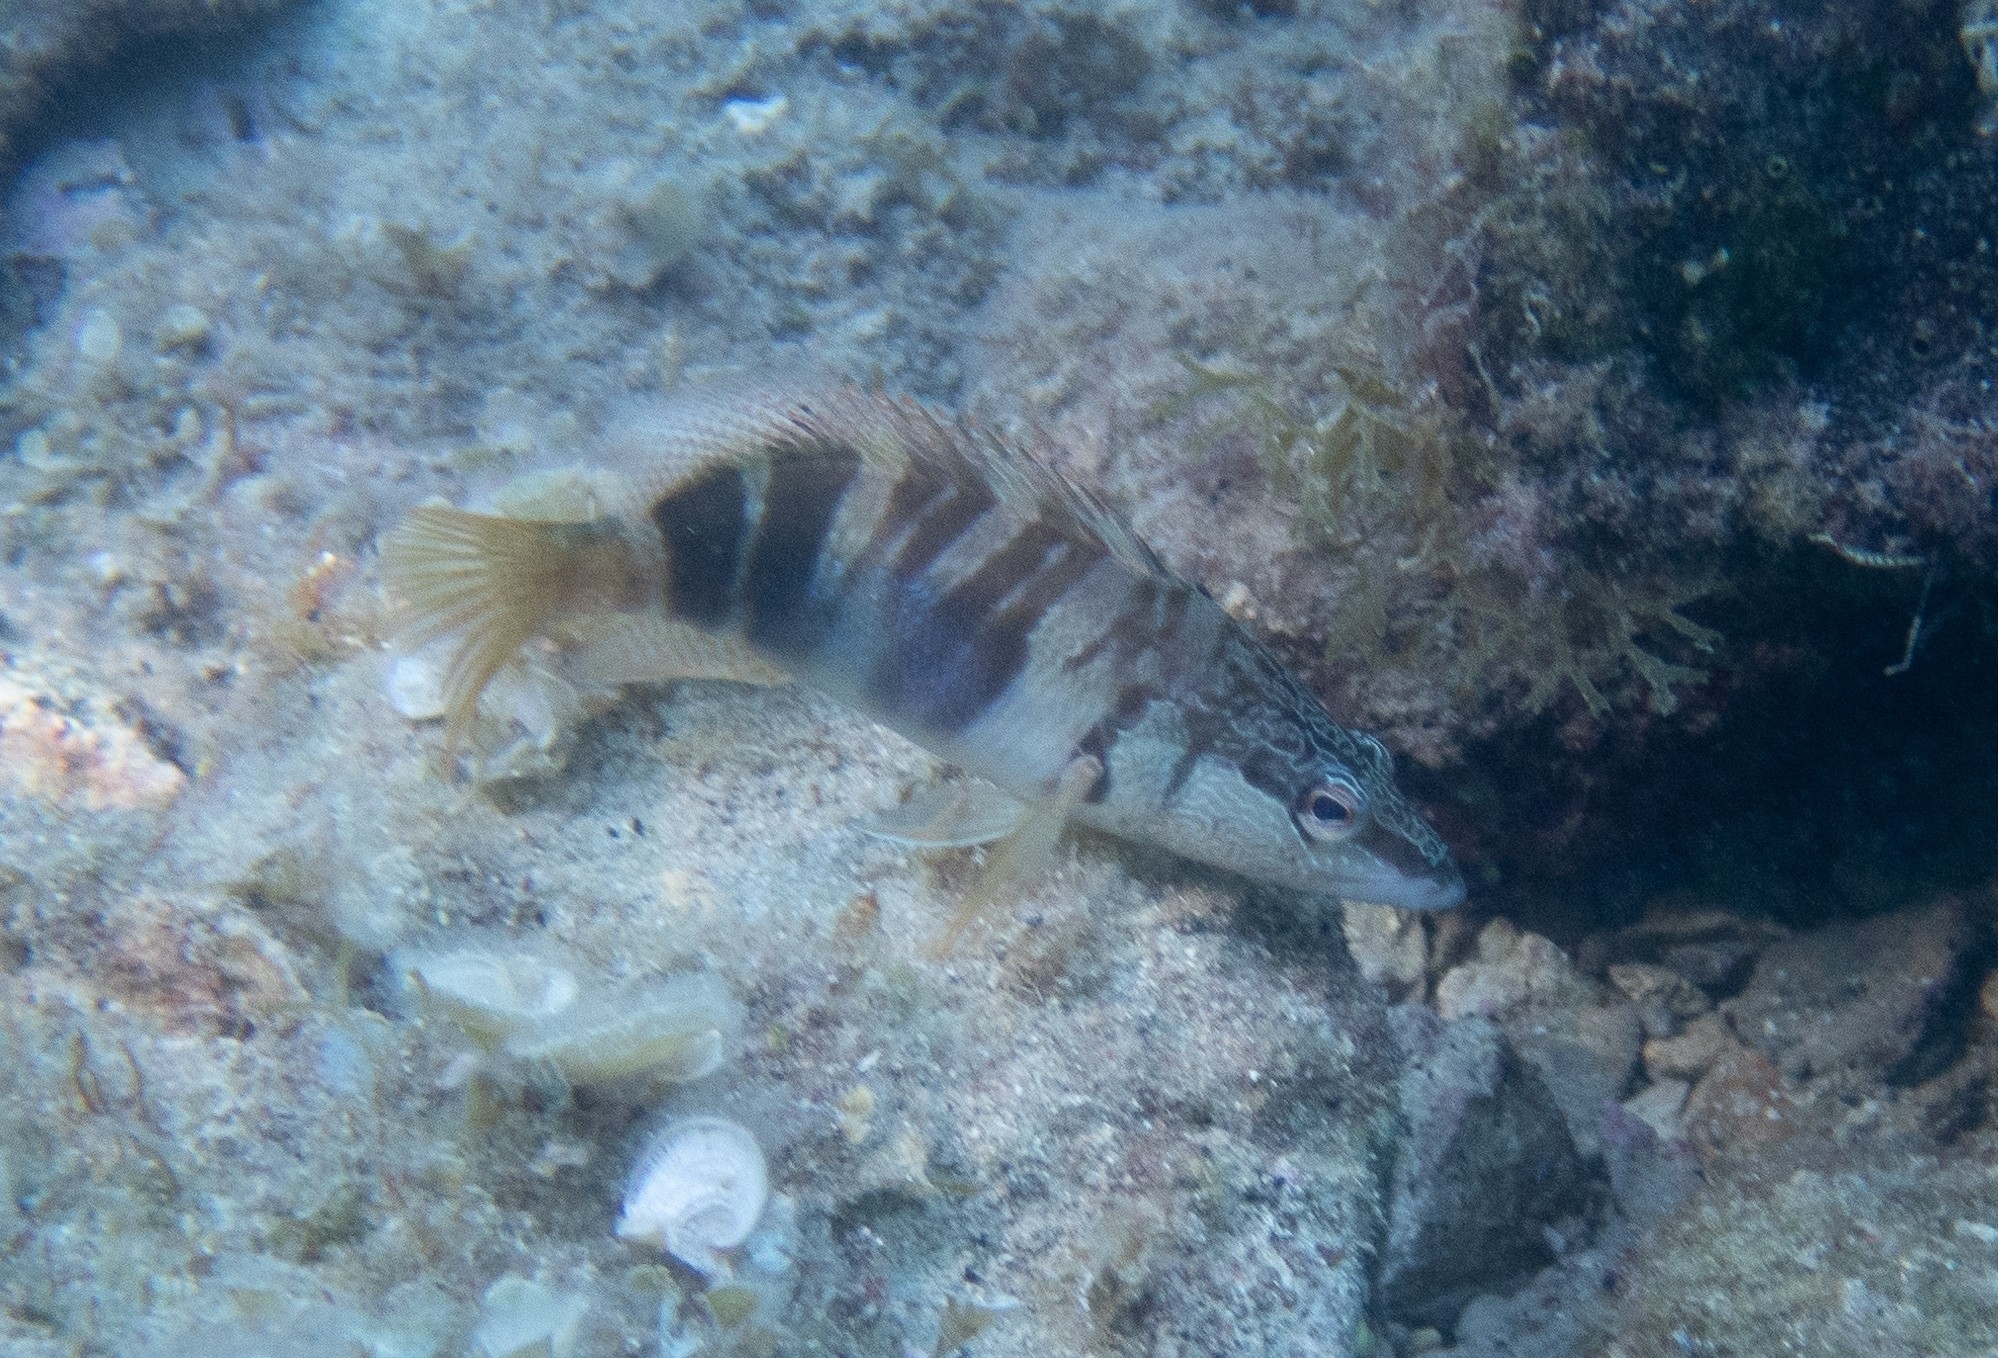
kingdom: Animalia
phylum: Chordata
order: Perciformes
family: Serranidae
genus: Serranus
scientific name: Serranus scriba
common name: Painted comber
